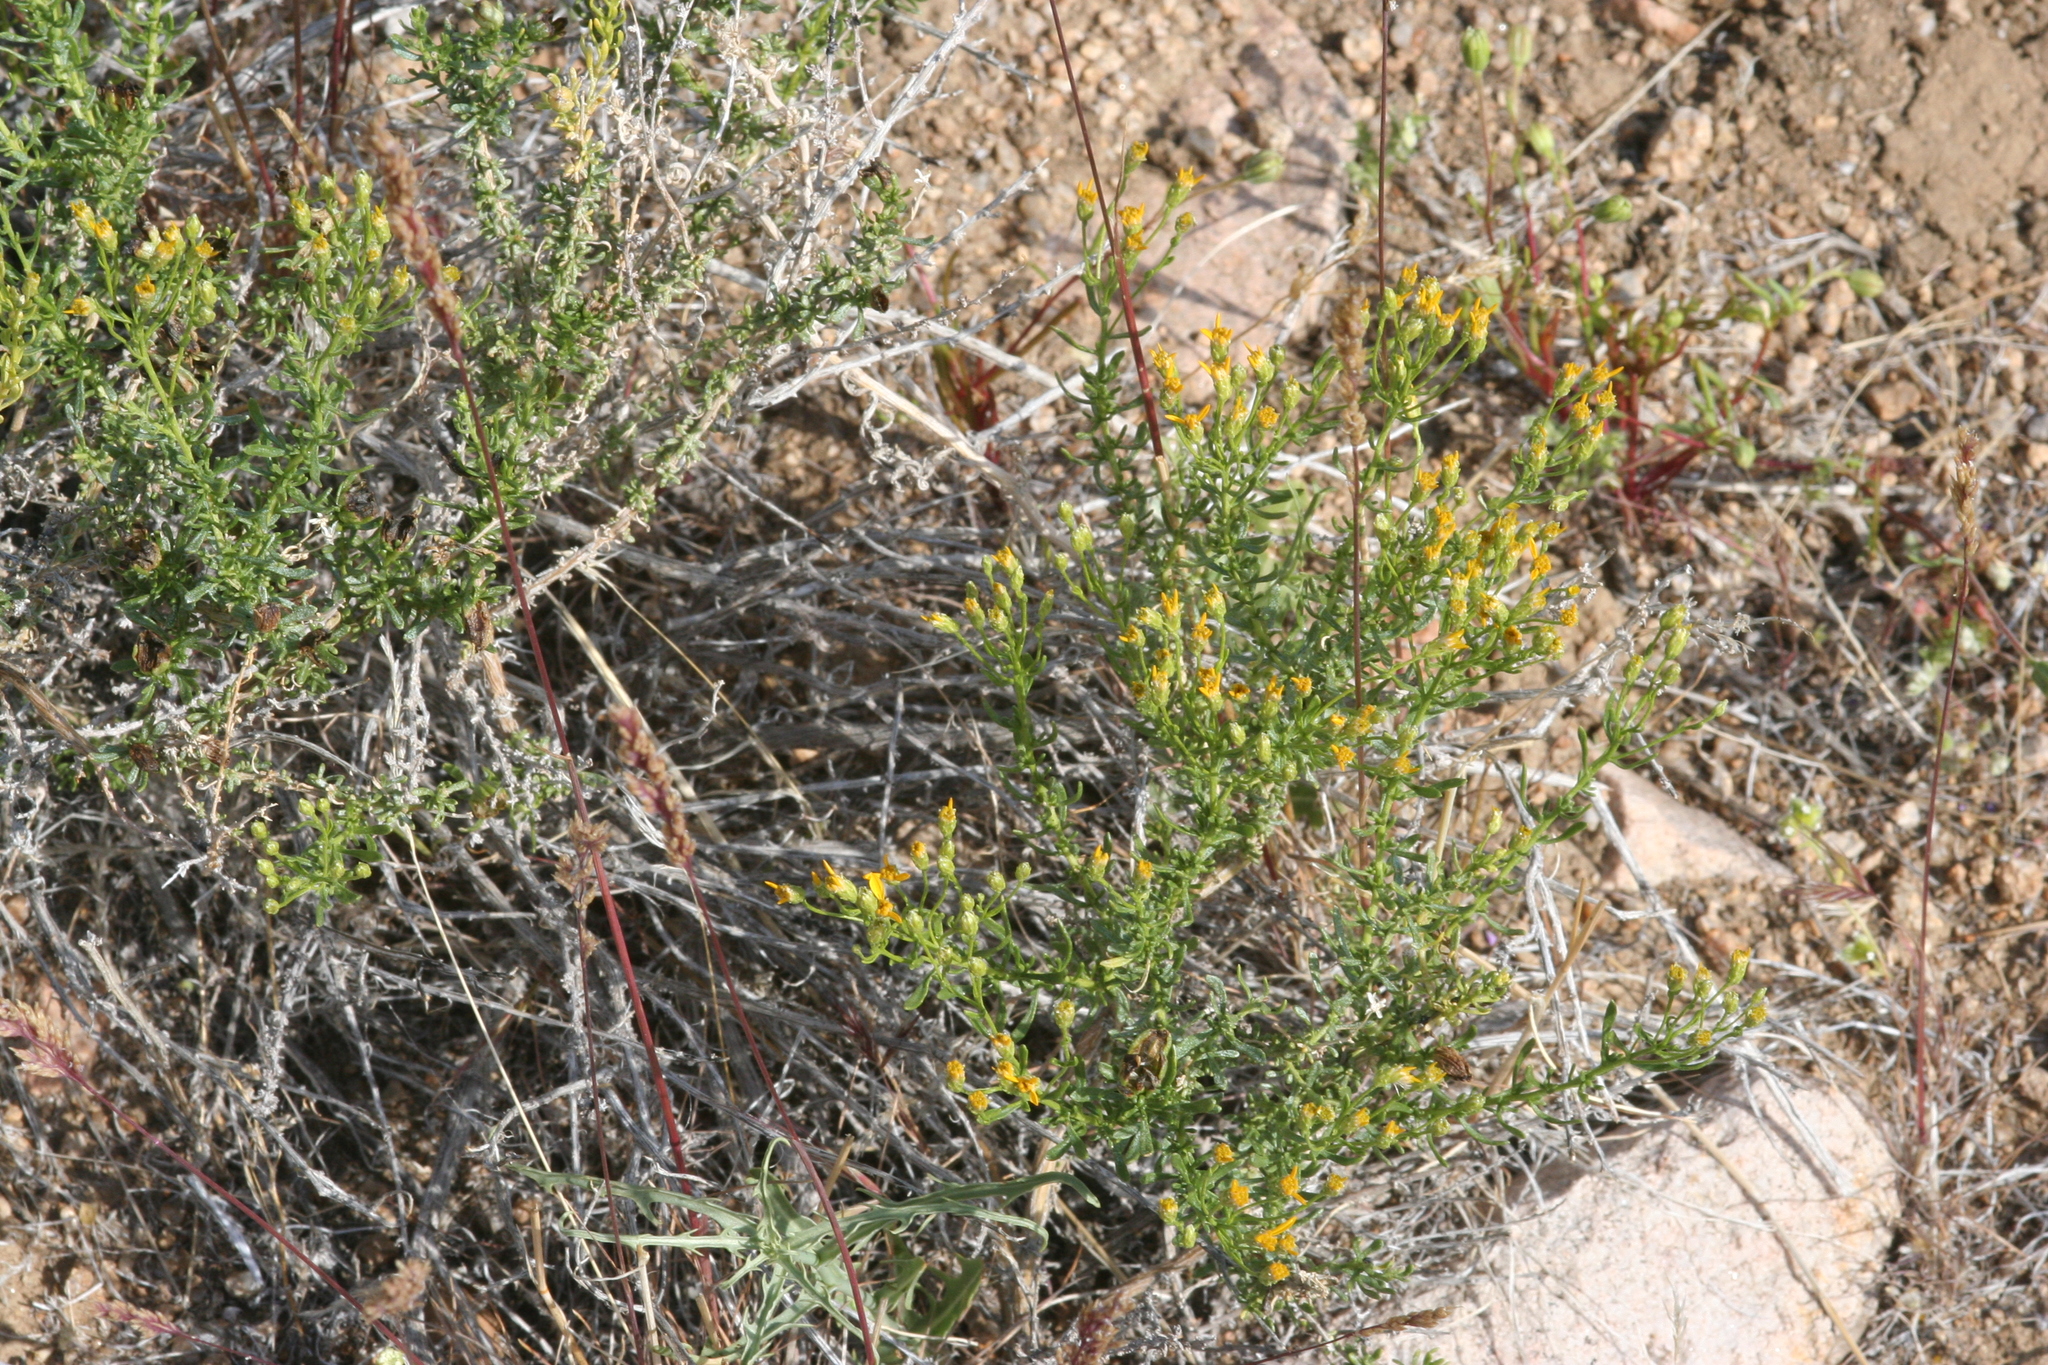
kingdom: Plantae
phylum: Tracheophyta
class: Magnoliopsida
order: Asterales
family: Asteraceae
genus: Ericameria
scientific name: Ericameria cooperi
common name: Cooper's goldenbush
